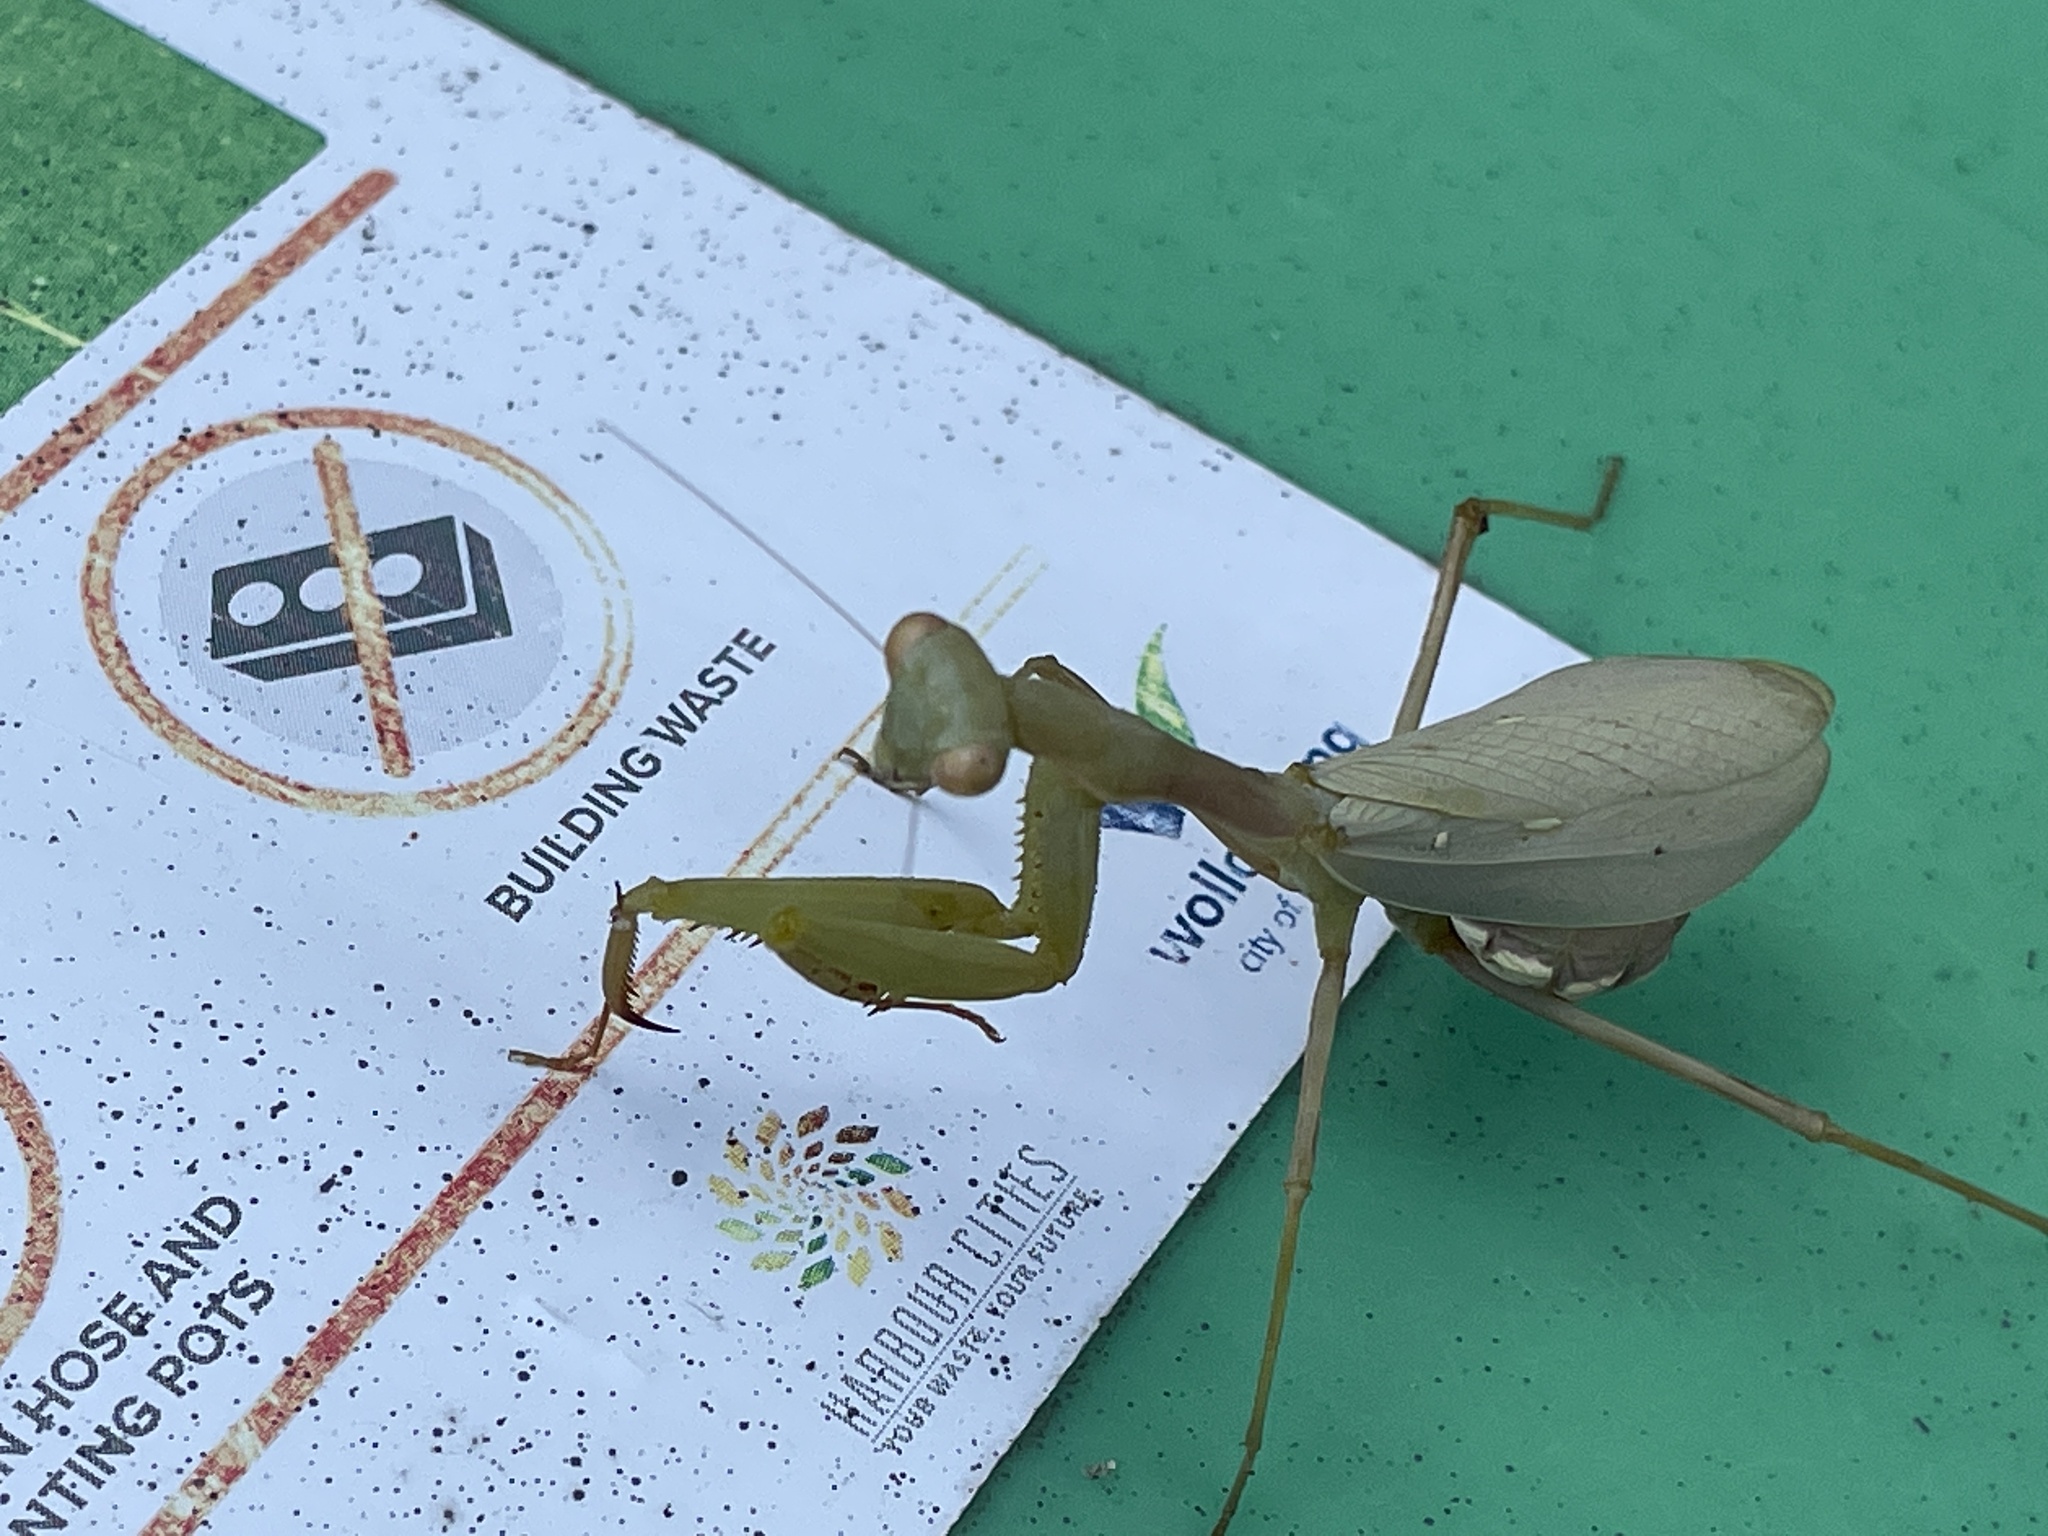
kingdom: Animalia
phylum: Arthropoda
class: Insecta
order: Mantodea
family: Miomantidae
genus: Miomantis
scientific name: Miomantis caffra
